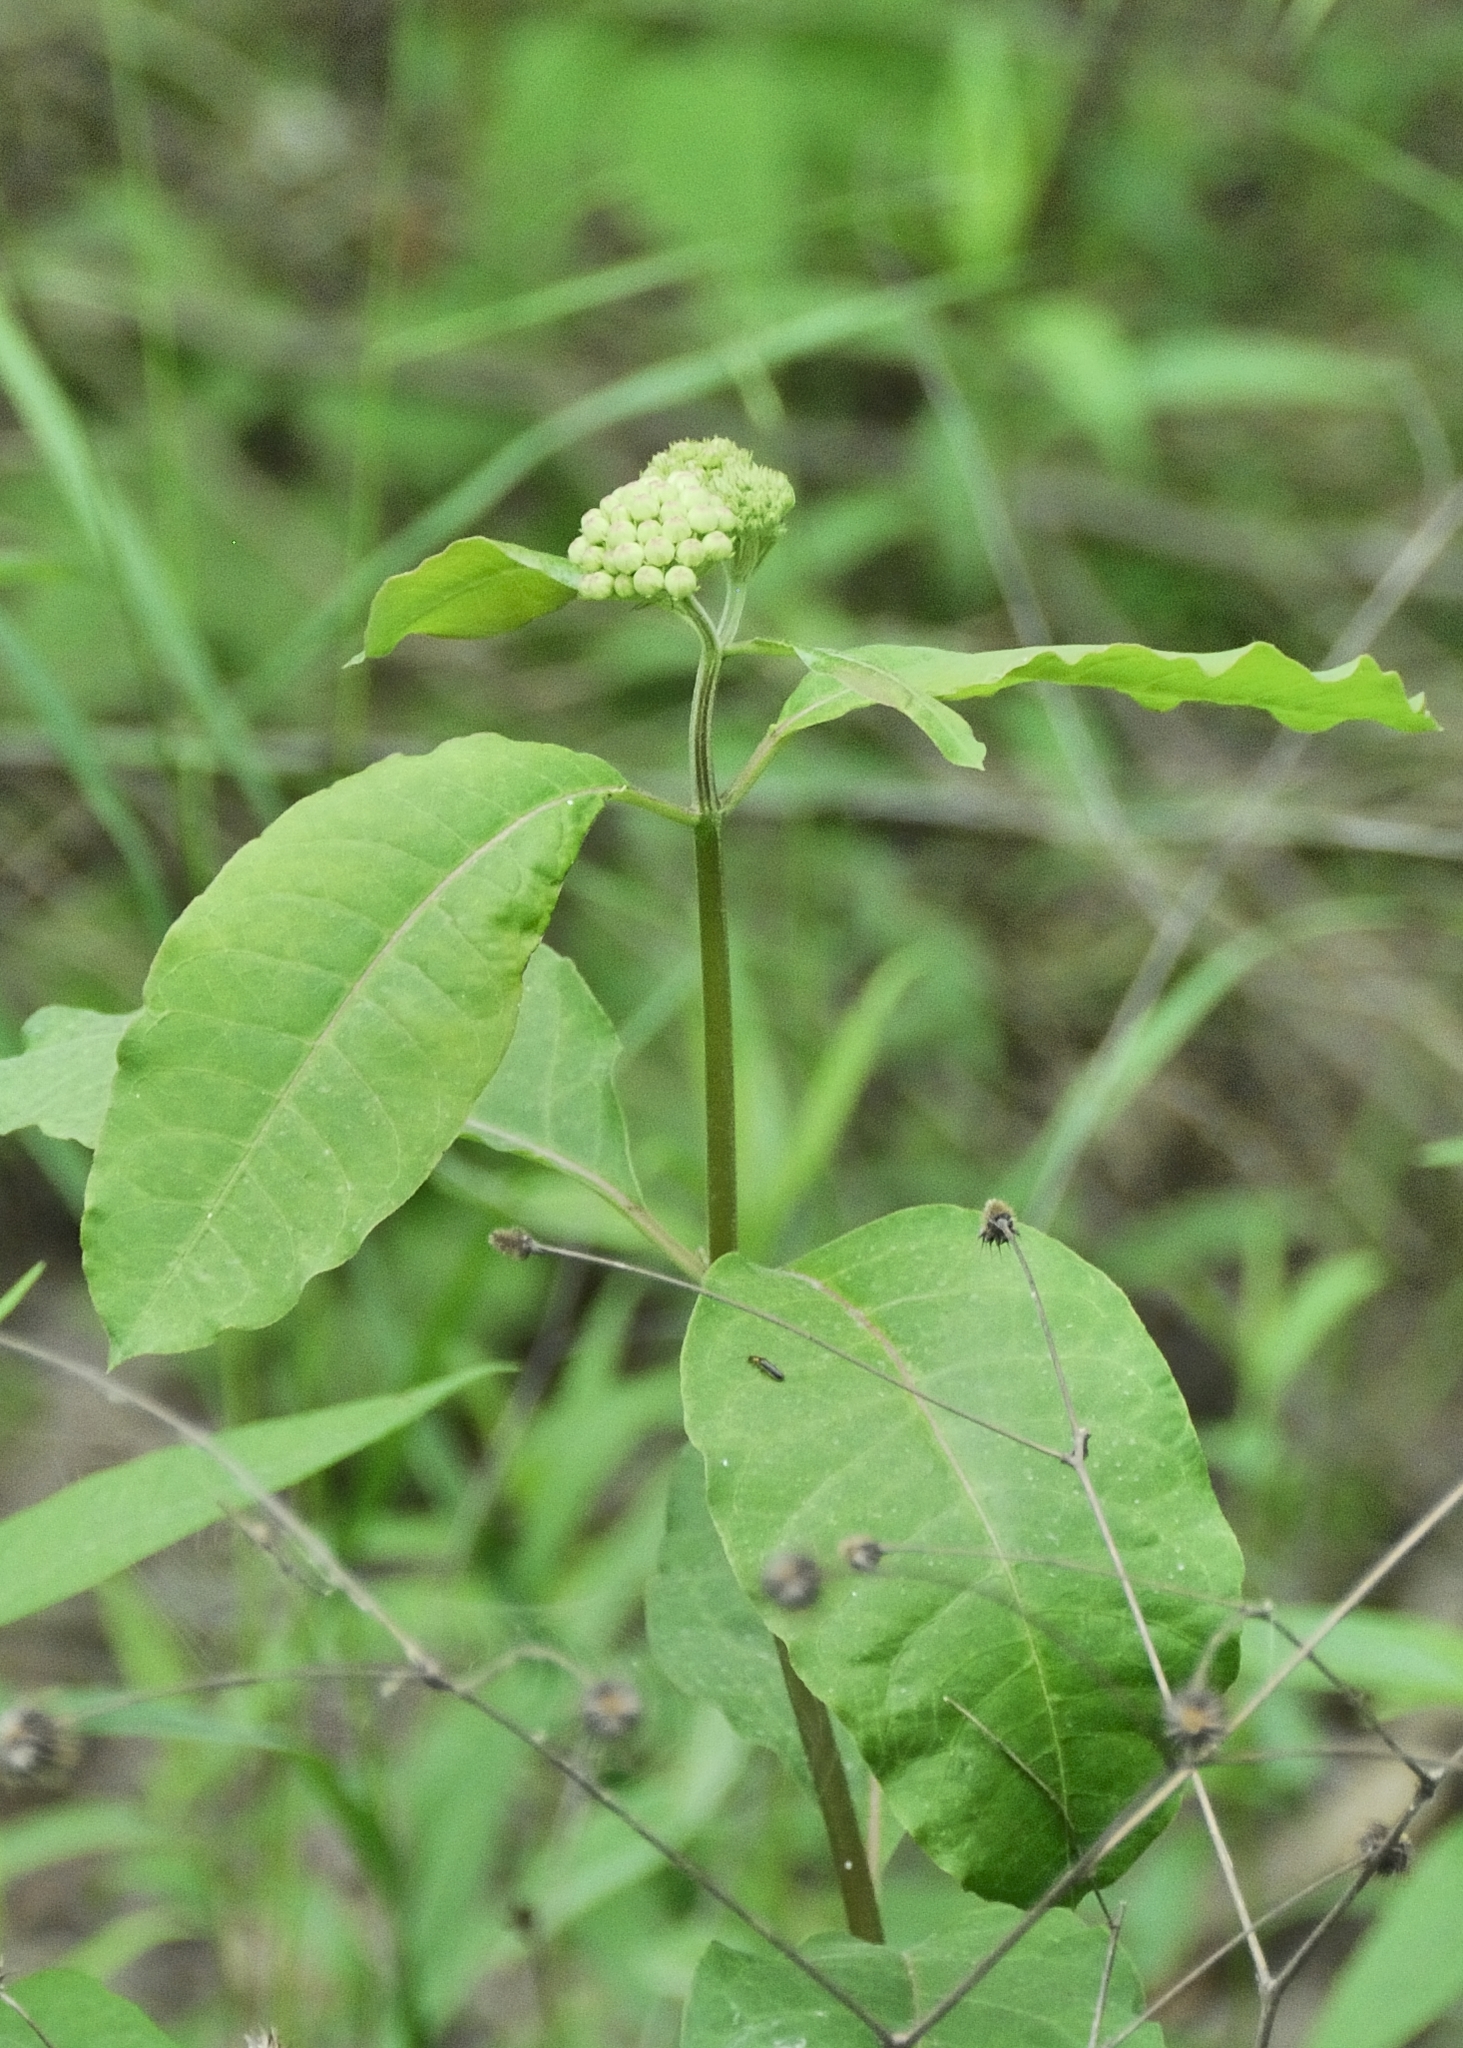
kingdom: Plantae
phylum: Tracheophyta
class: Magnoliopsida
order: Gentianales
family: Apocynaceae
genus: Asclepias
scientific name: Asclepias variegata
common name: Variegated milkweed
